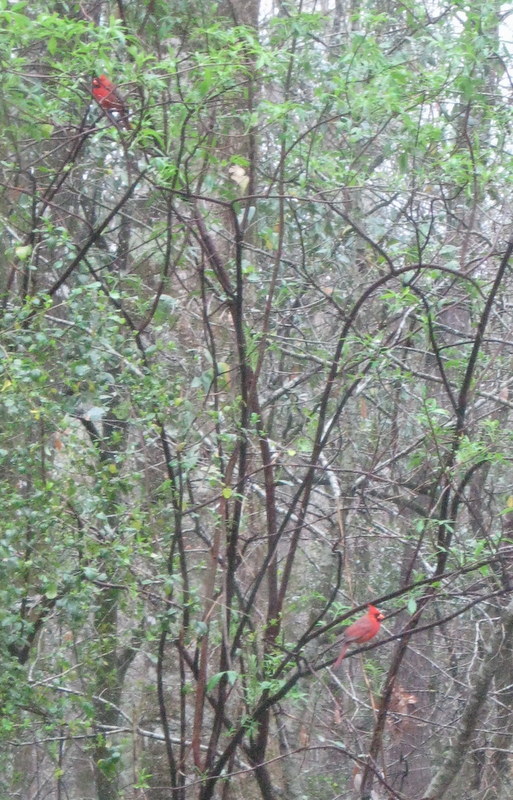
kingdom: Animalia
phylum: Chordata
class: Aves
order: Passeriformes
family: Cardinalidae
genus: Cardinalis
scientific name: Cardinalis cardinalis
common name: Northern cardinal
